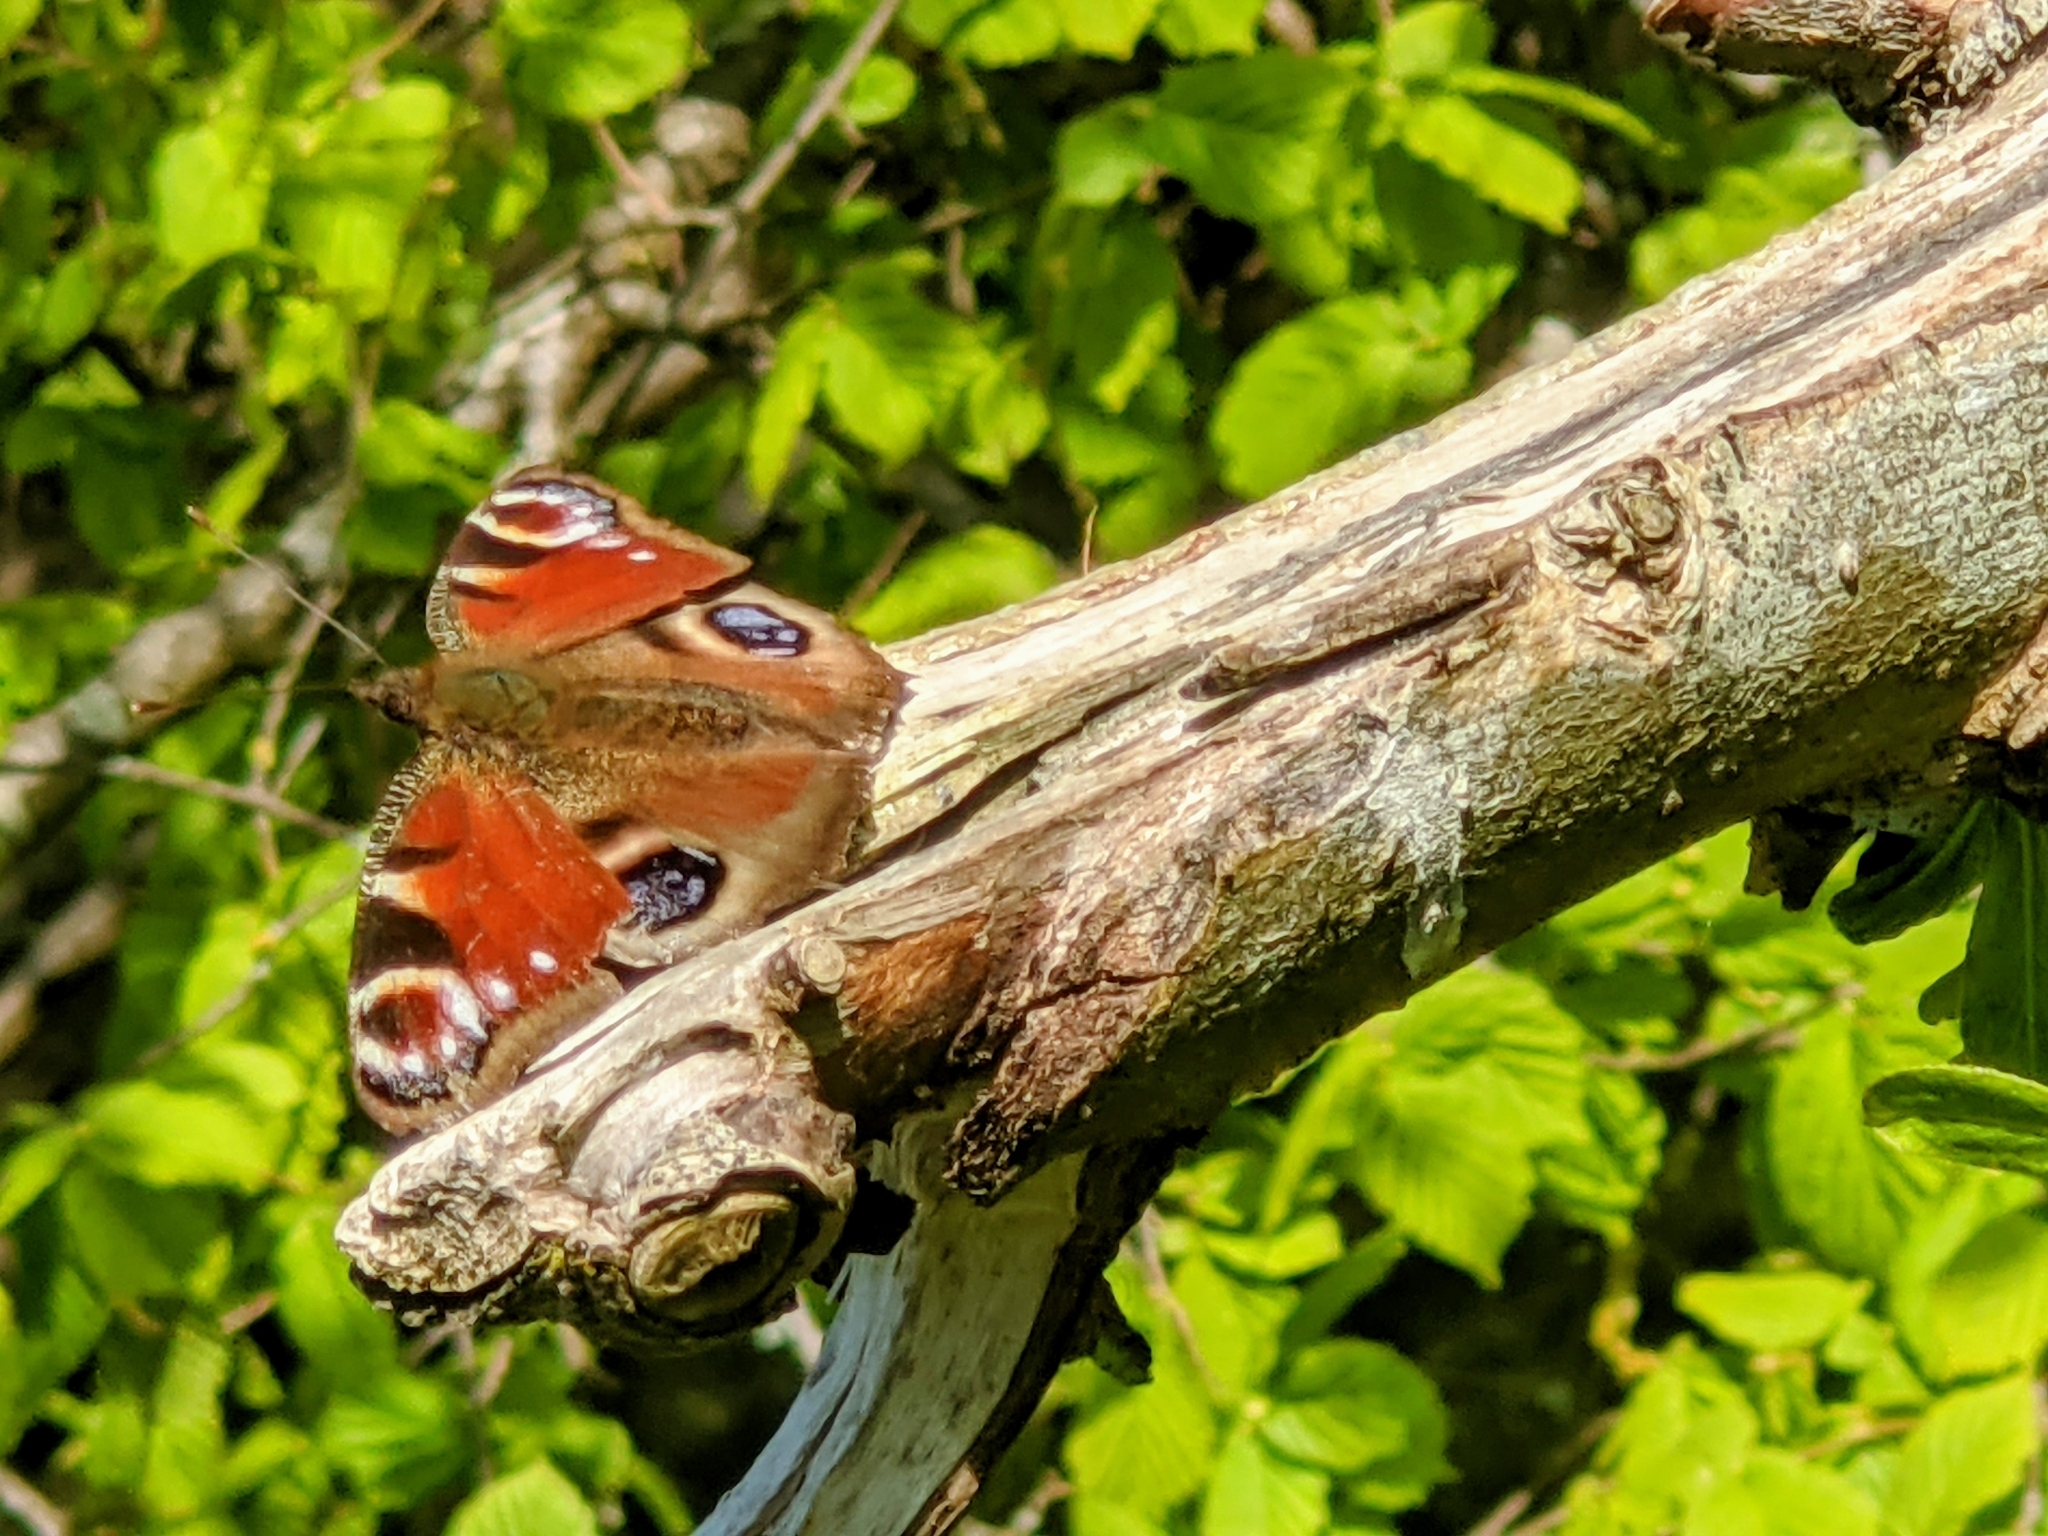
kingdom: Animalia
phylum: Arthropoda
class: Insecta
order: Lepidoptera
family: Nymphalidae
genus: Aglais
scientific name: Aglais io
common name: Peacock
